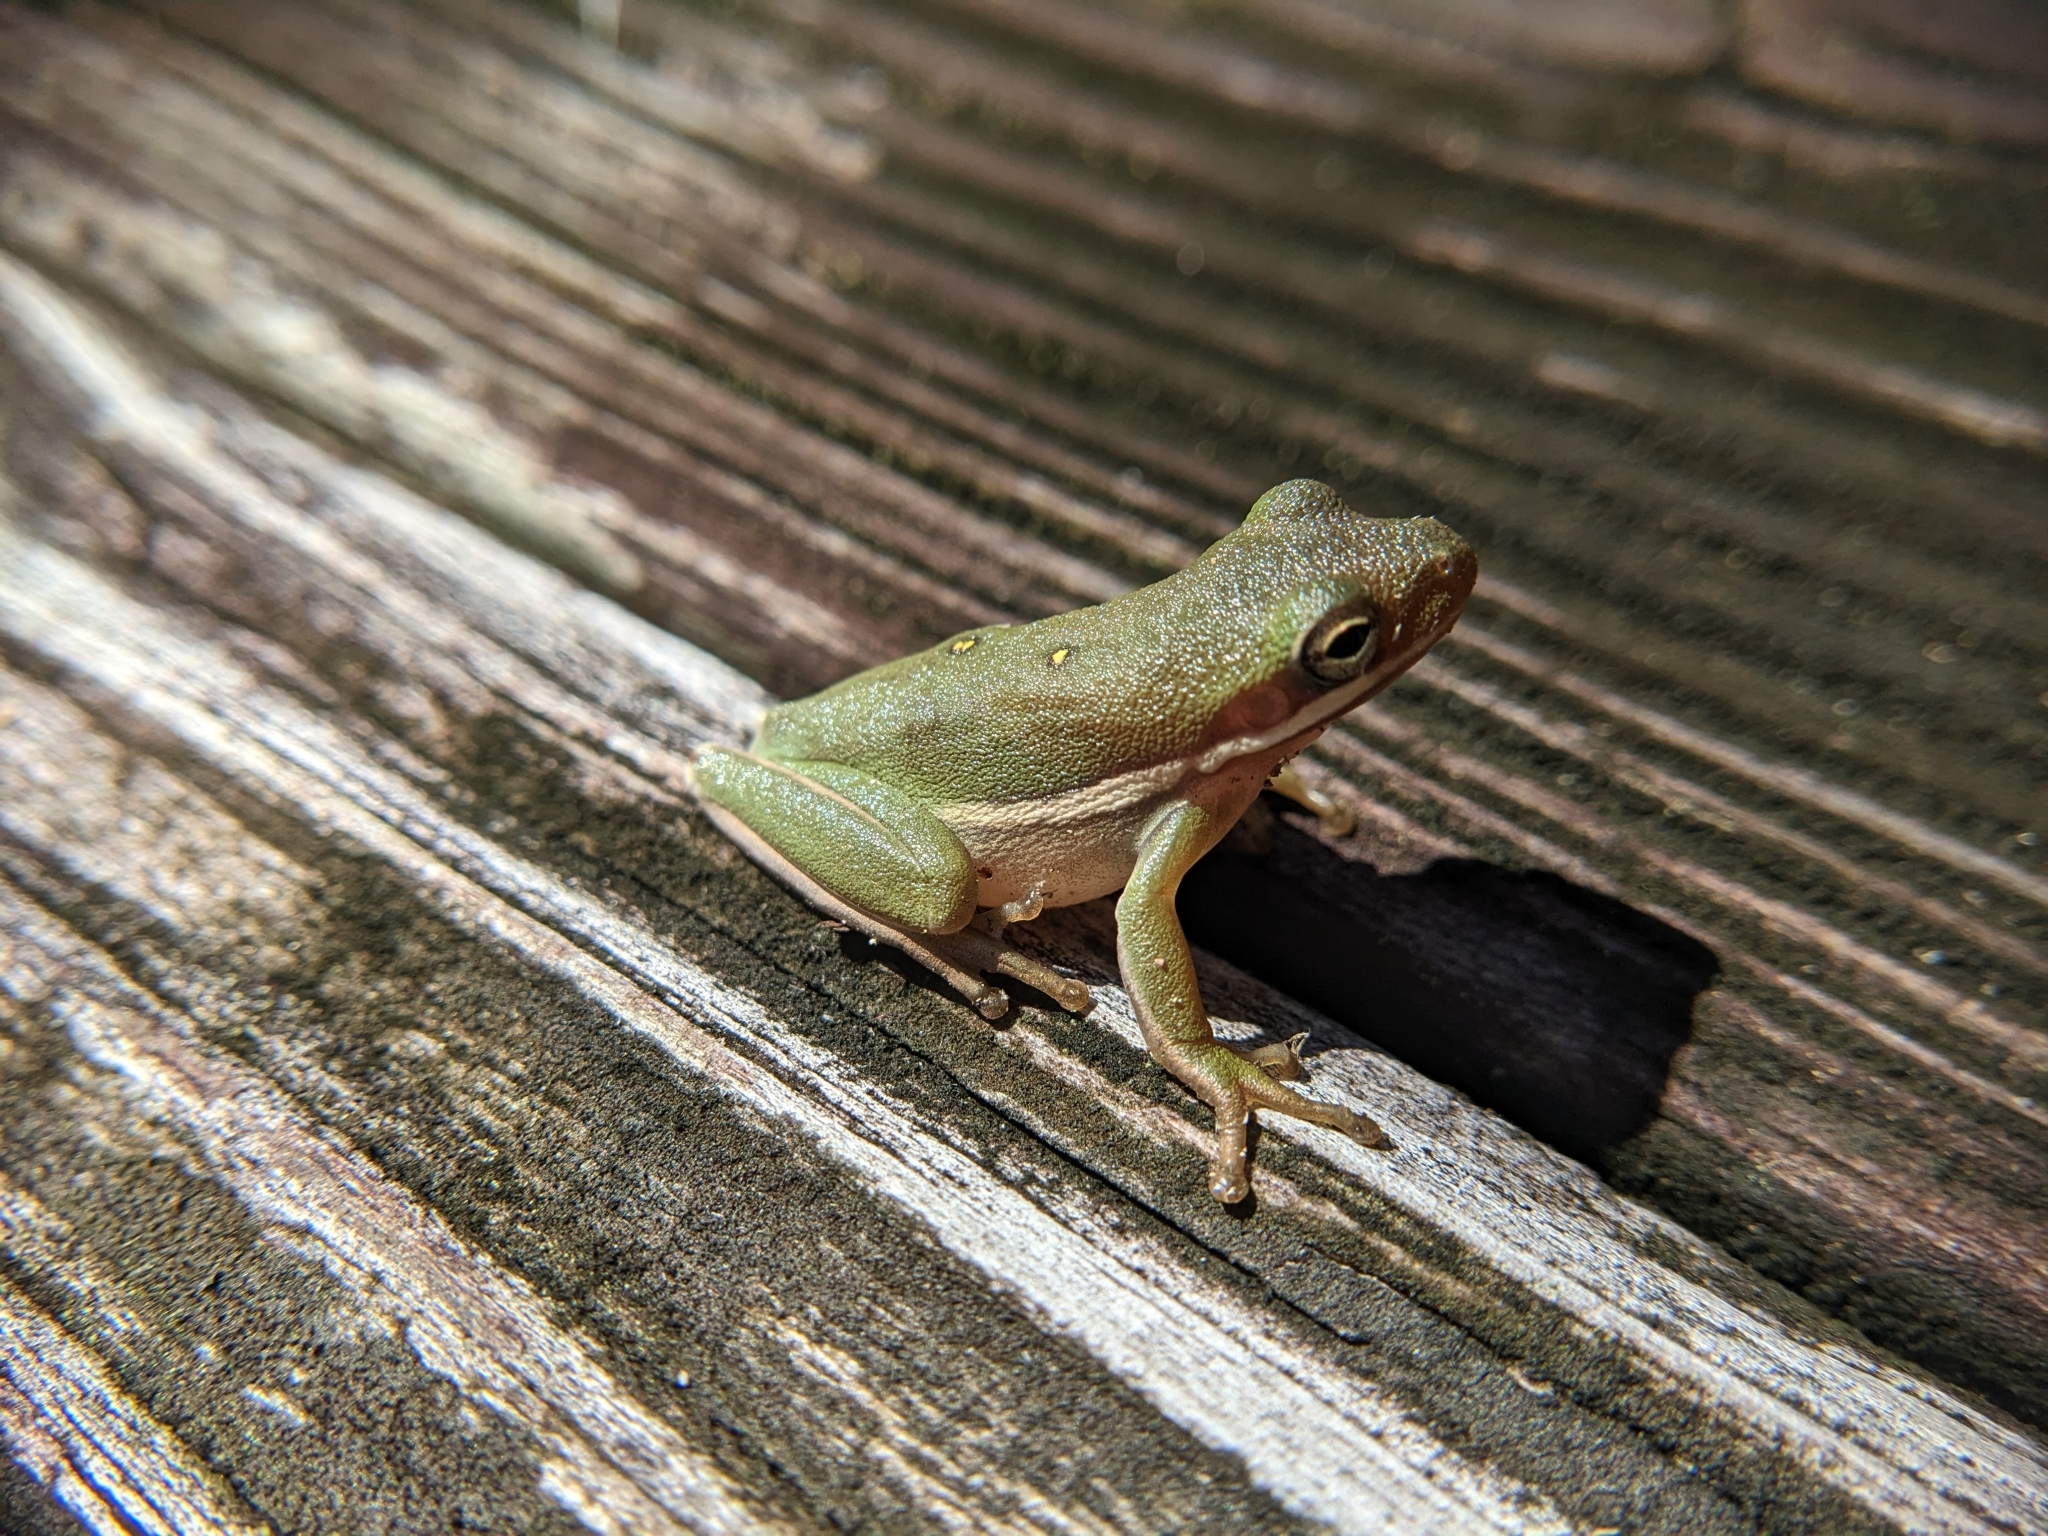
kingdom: Animalia
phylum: Chordata
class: Amphibia
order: Anura
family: Hylidae
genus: Dryophytes
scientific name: Dryophytes cinereus
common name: Green treefrog
